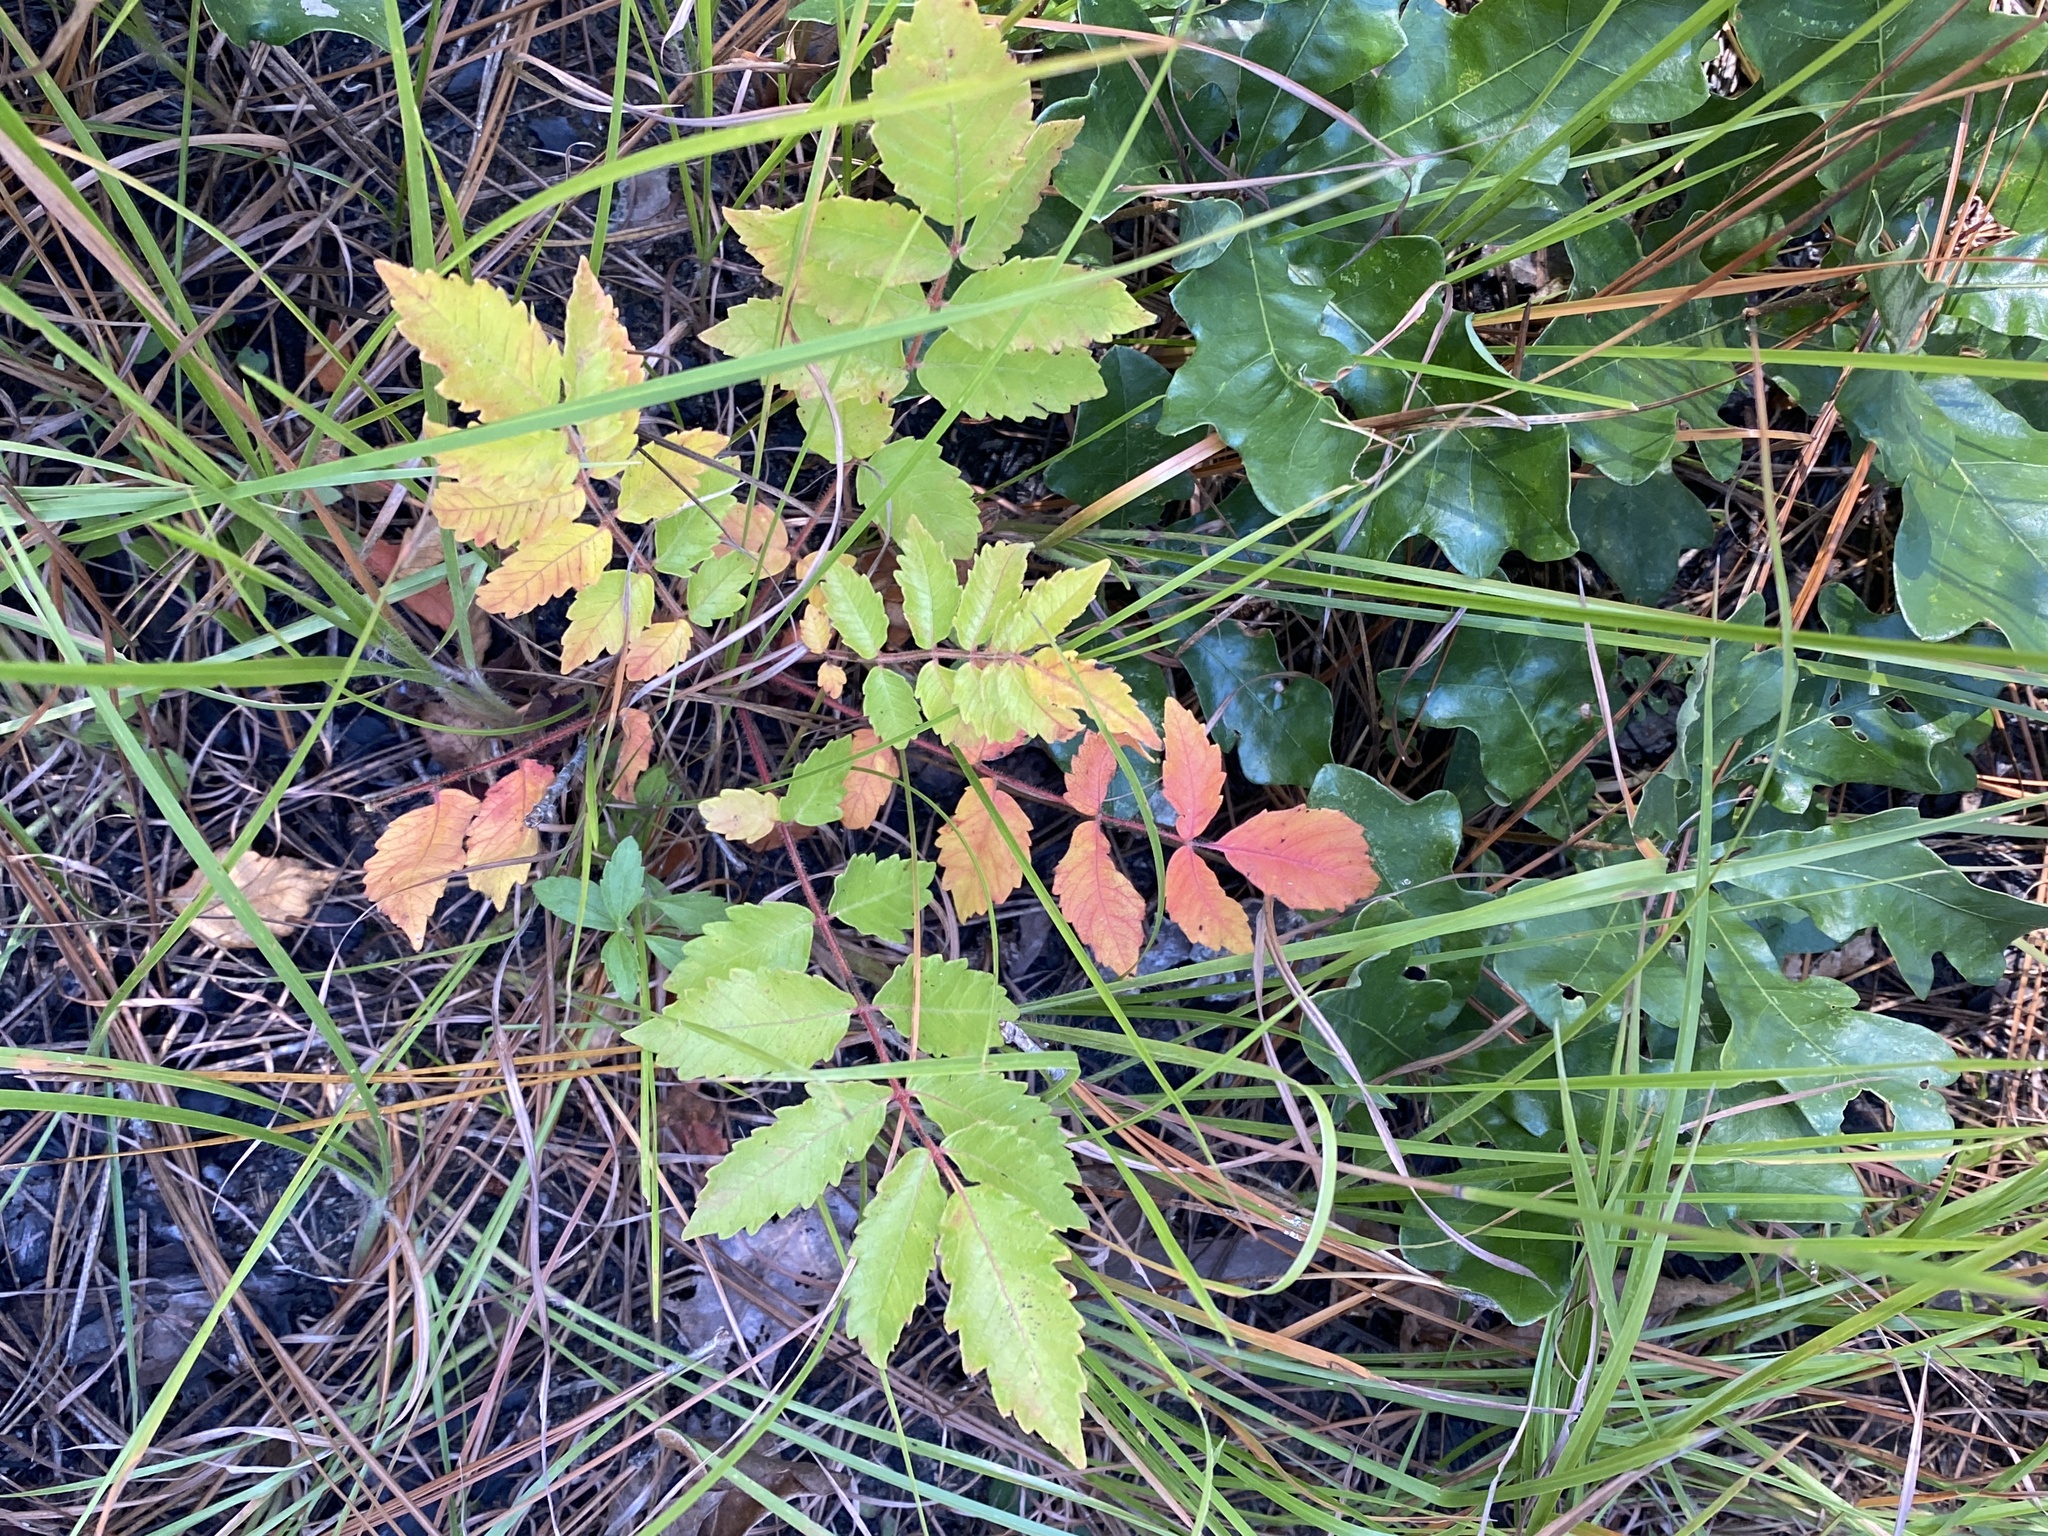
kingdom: Plantae
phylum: Tracheophyta
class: Magnoliopsida
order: Sapindales
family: Anacardiaceae
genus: Rhus
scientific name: Rhus michauxii
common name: Michaux's sumac
